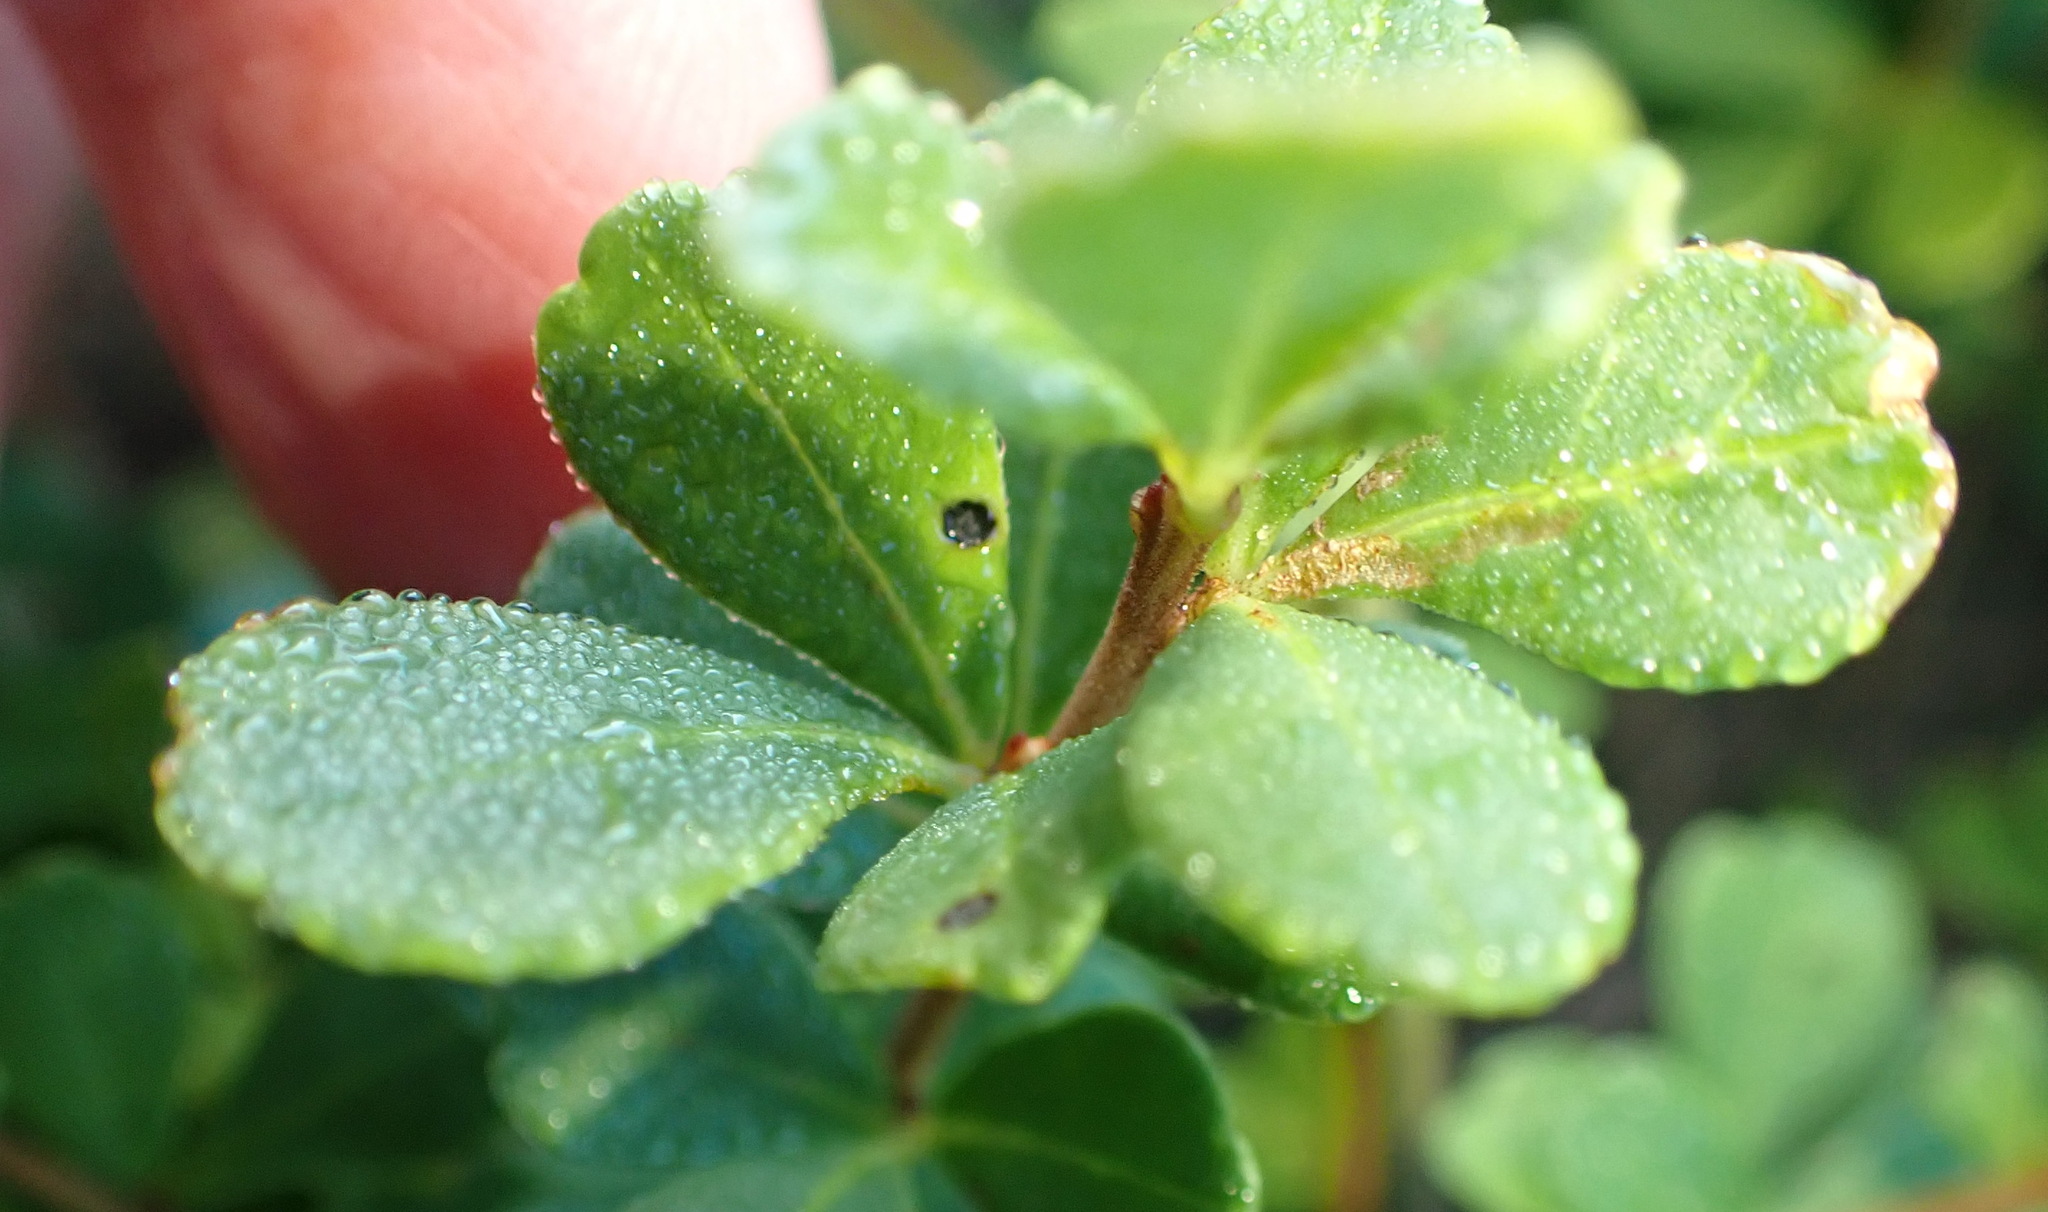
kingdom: Plantae
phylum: Tracheophyta
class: Magnoliopsida
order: Sapindales
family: Anacardiaceae
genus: Searsia
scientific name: Searsia crenata
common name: Crowberry
